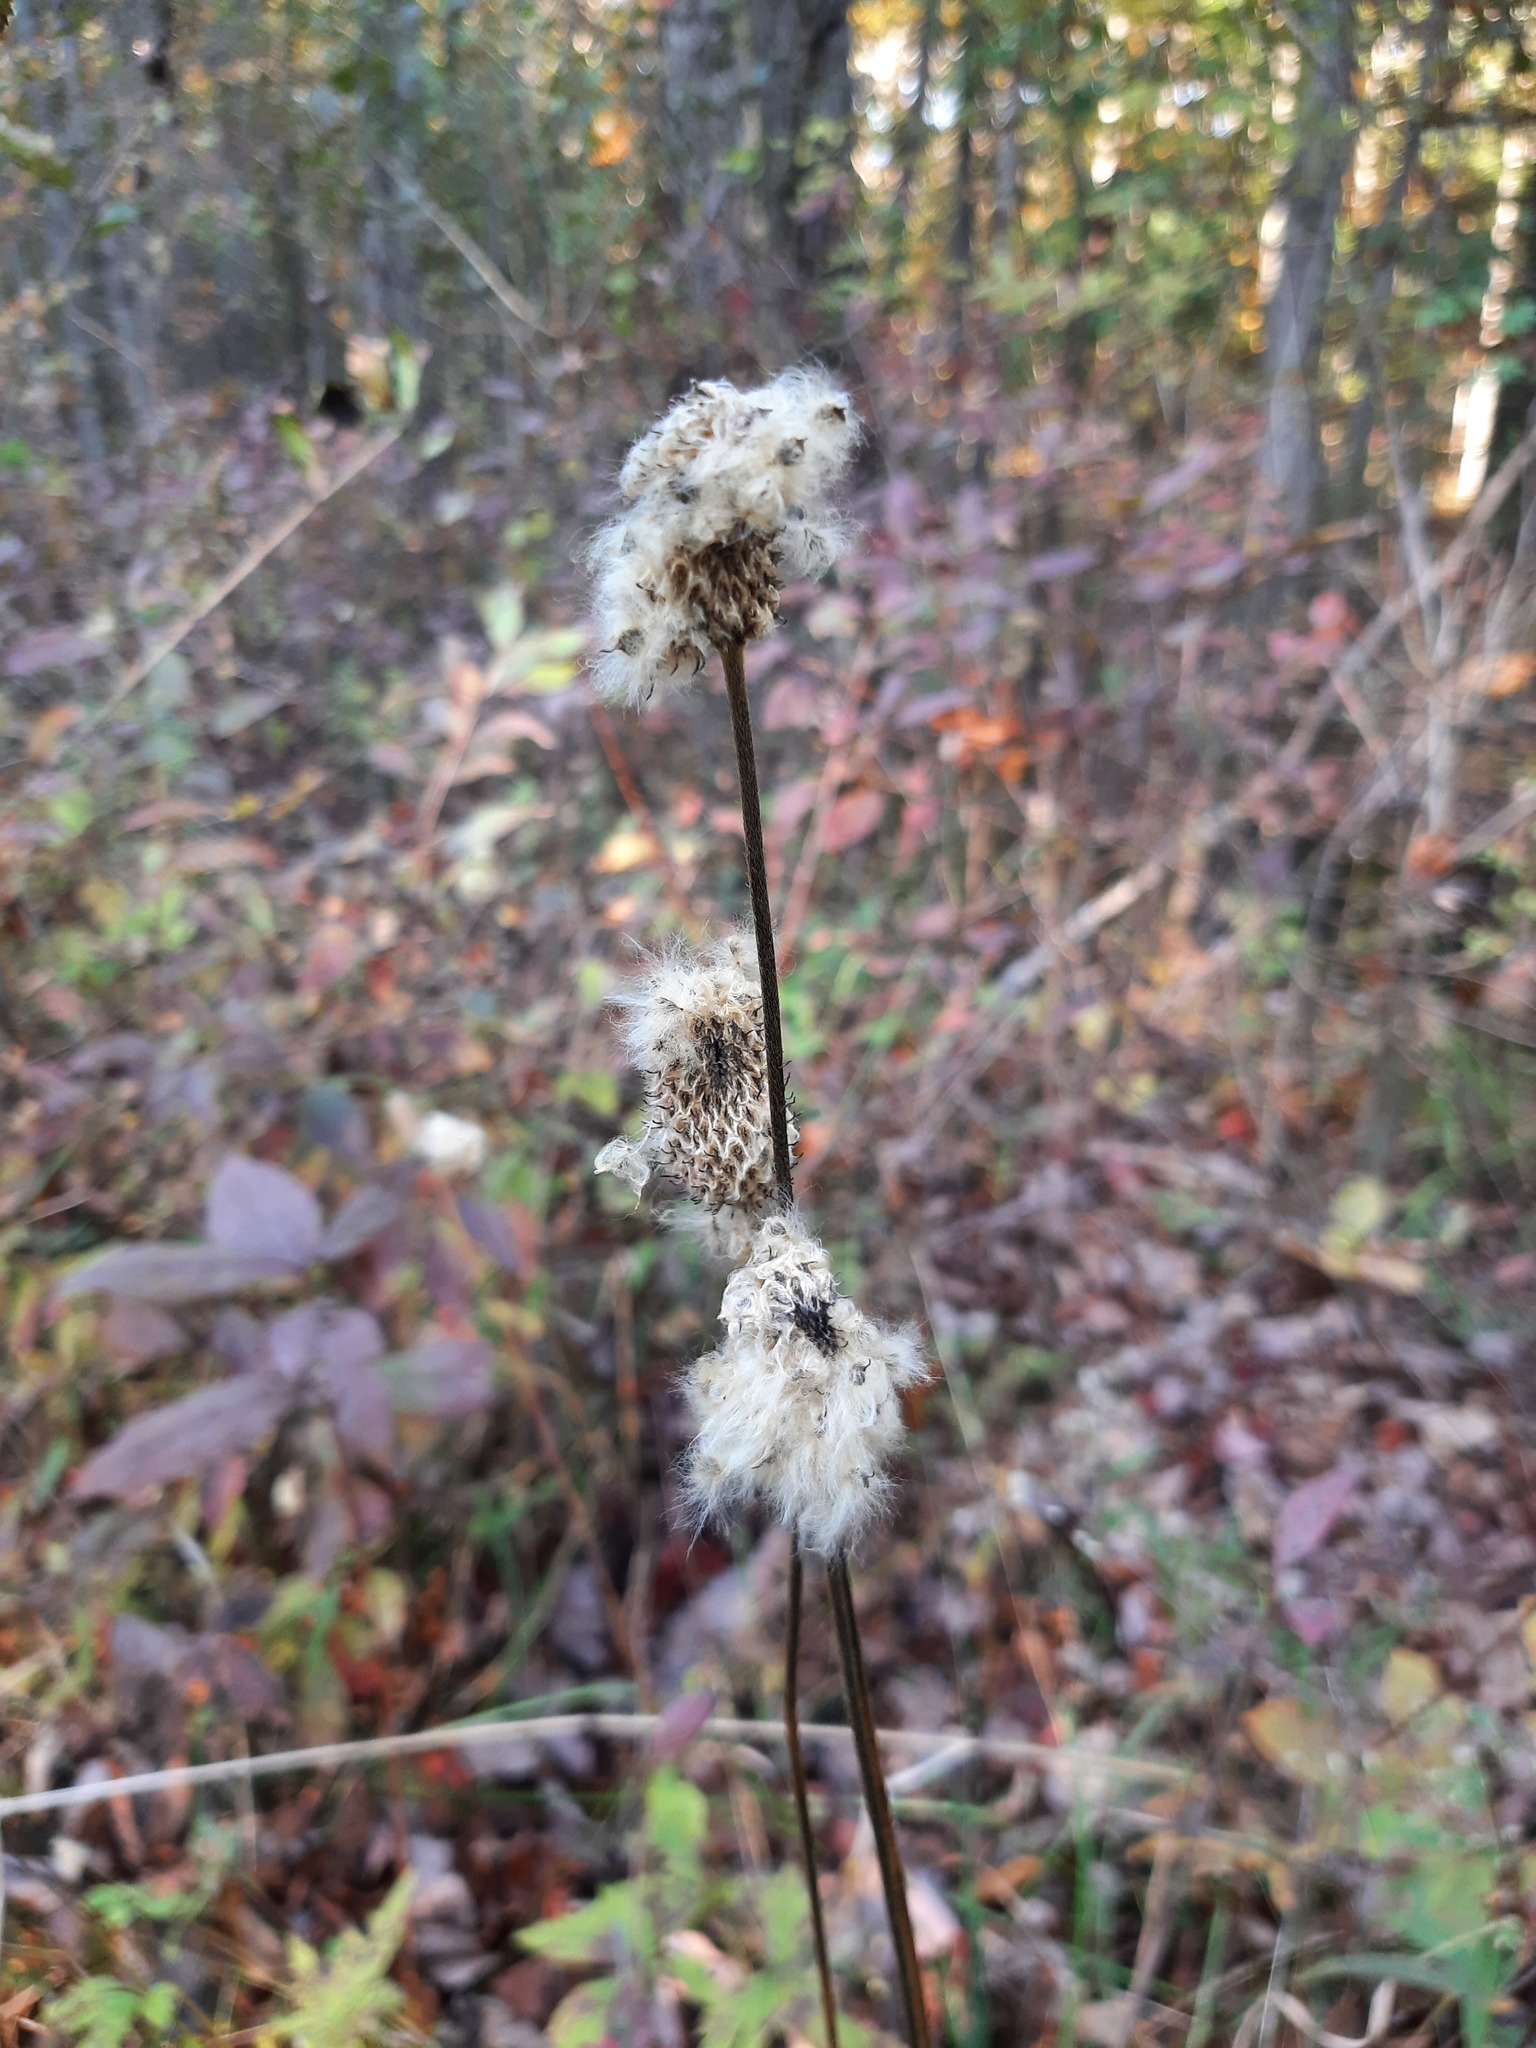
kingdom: Plantae
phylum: Tracheophyta
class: Magnoliopsida
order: Ranunculales
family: Ranunculaceae
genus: Anemone
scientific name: Anemone virginiana
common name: Tall anemone
